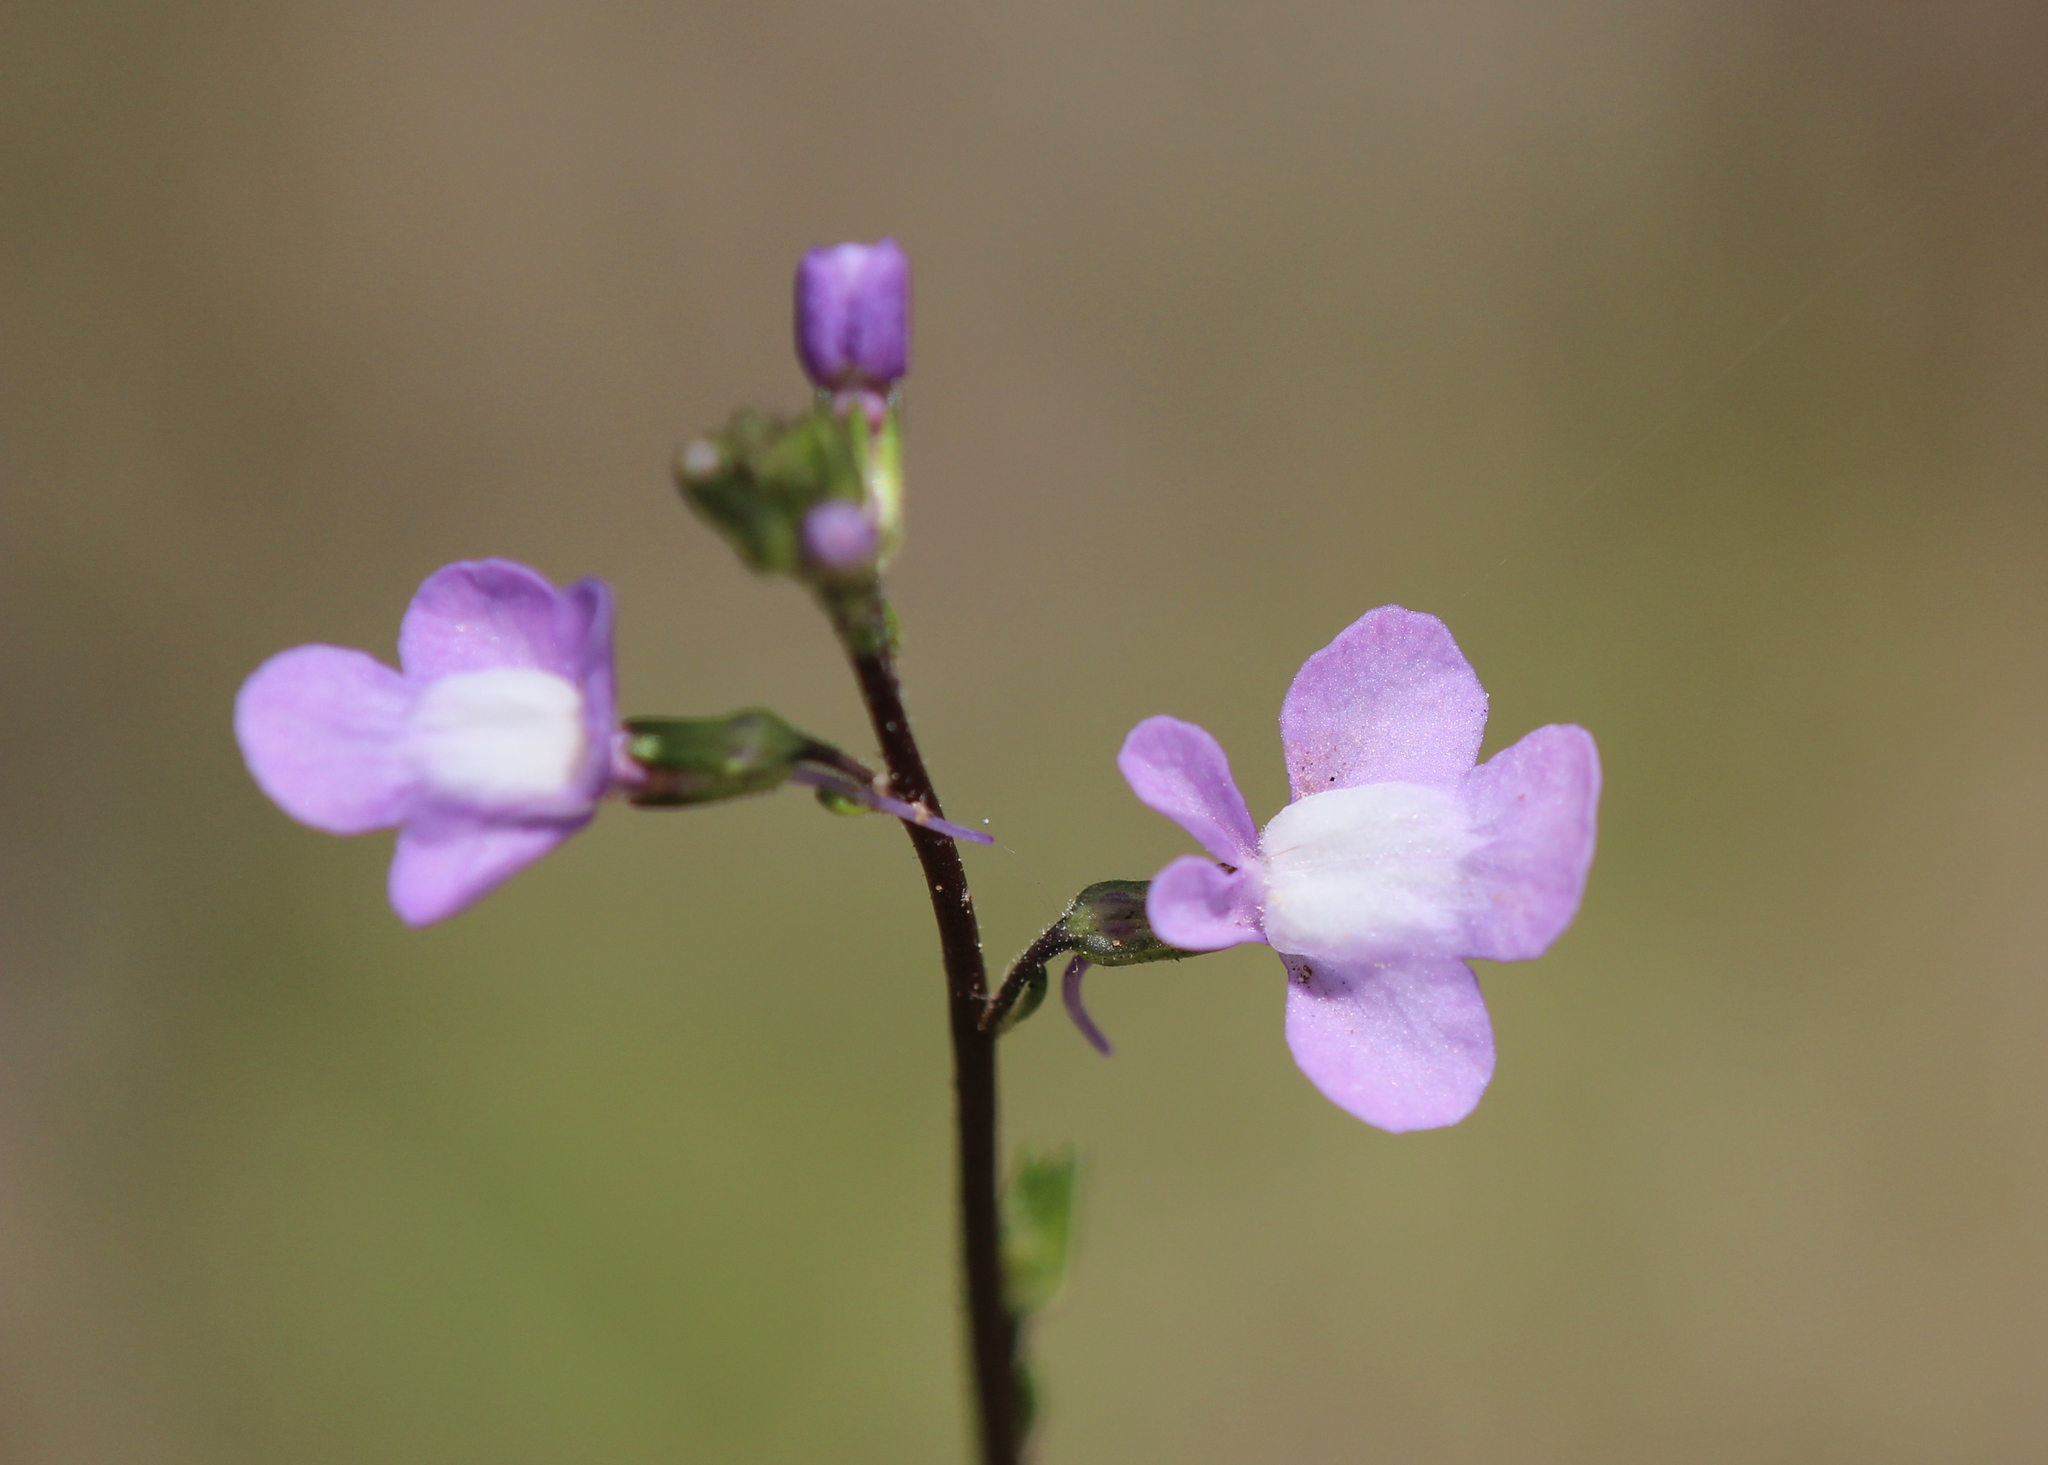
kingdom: Plantae
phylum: Tracheophyta
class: Magnoliopsida
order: Lamiales
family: Plantaginaceae
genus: Nuttallanthus
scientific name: Nuttallanthus canadensis
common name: Blue toadflax
